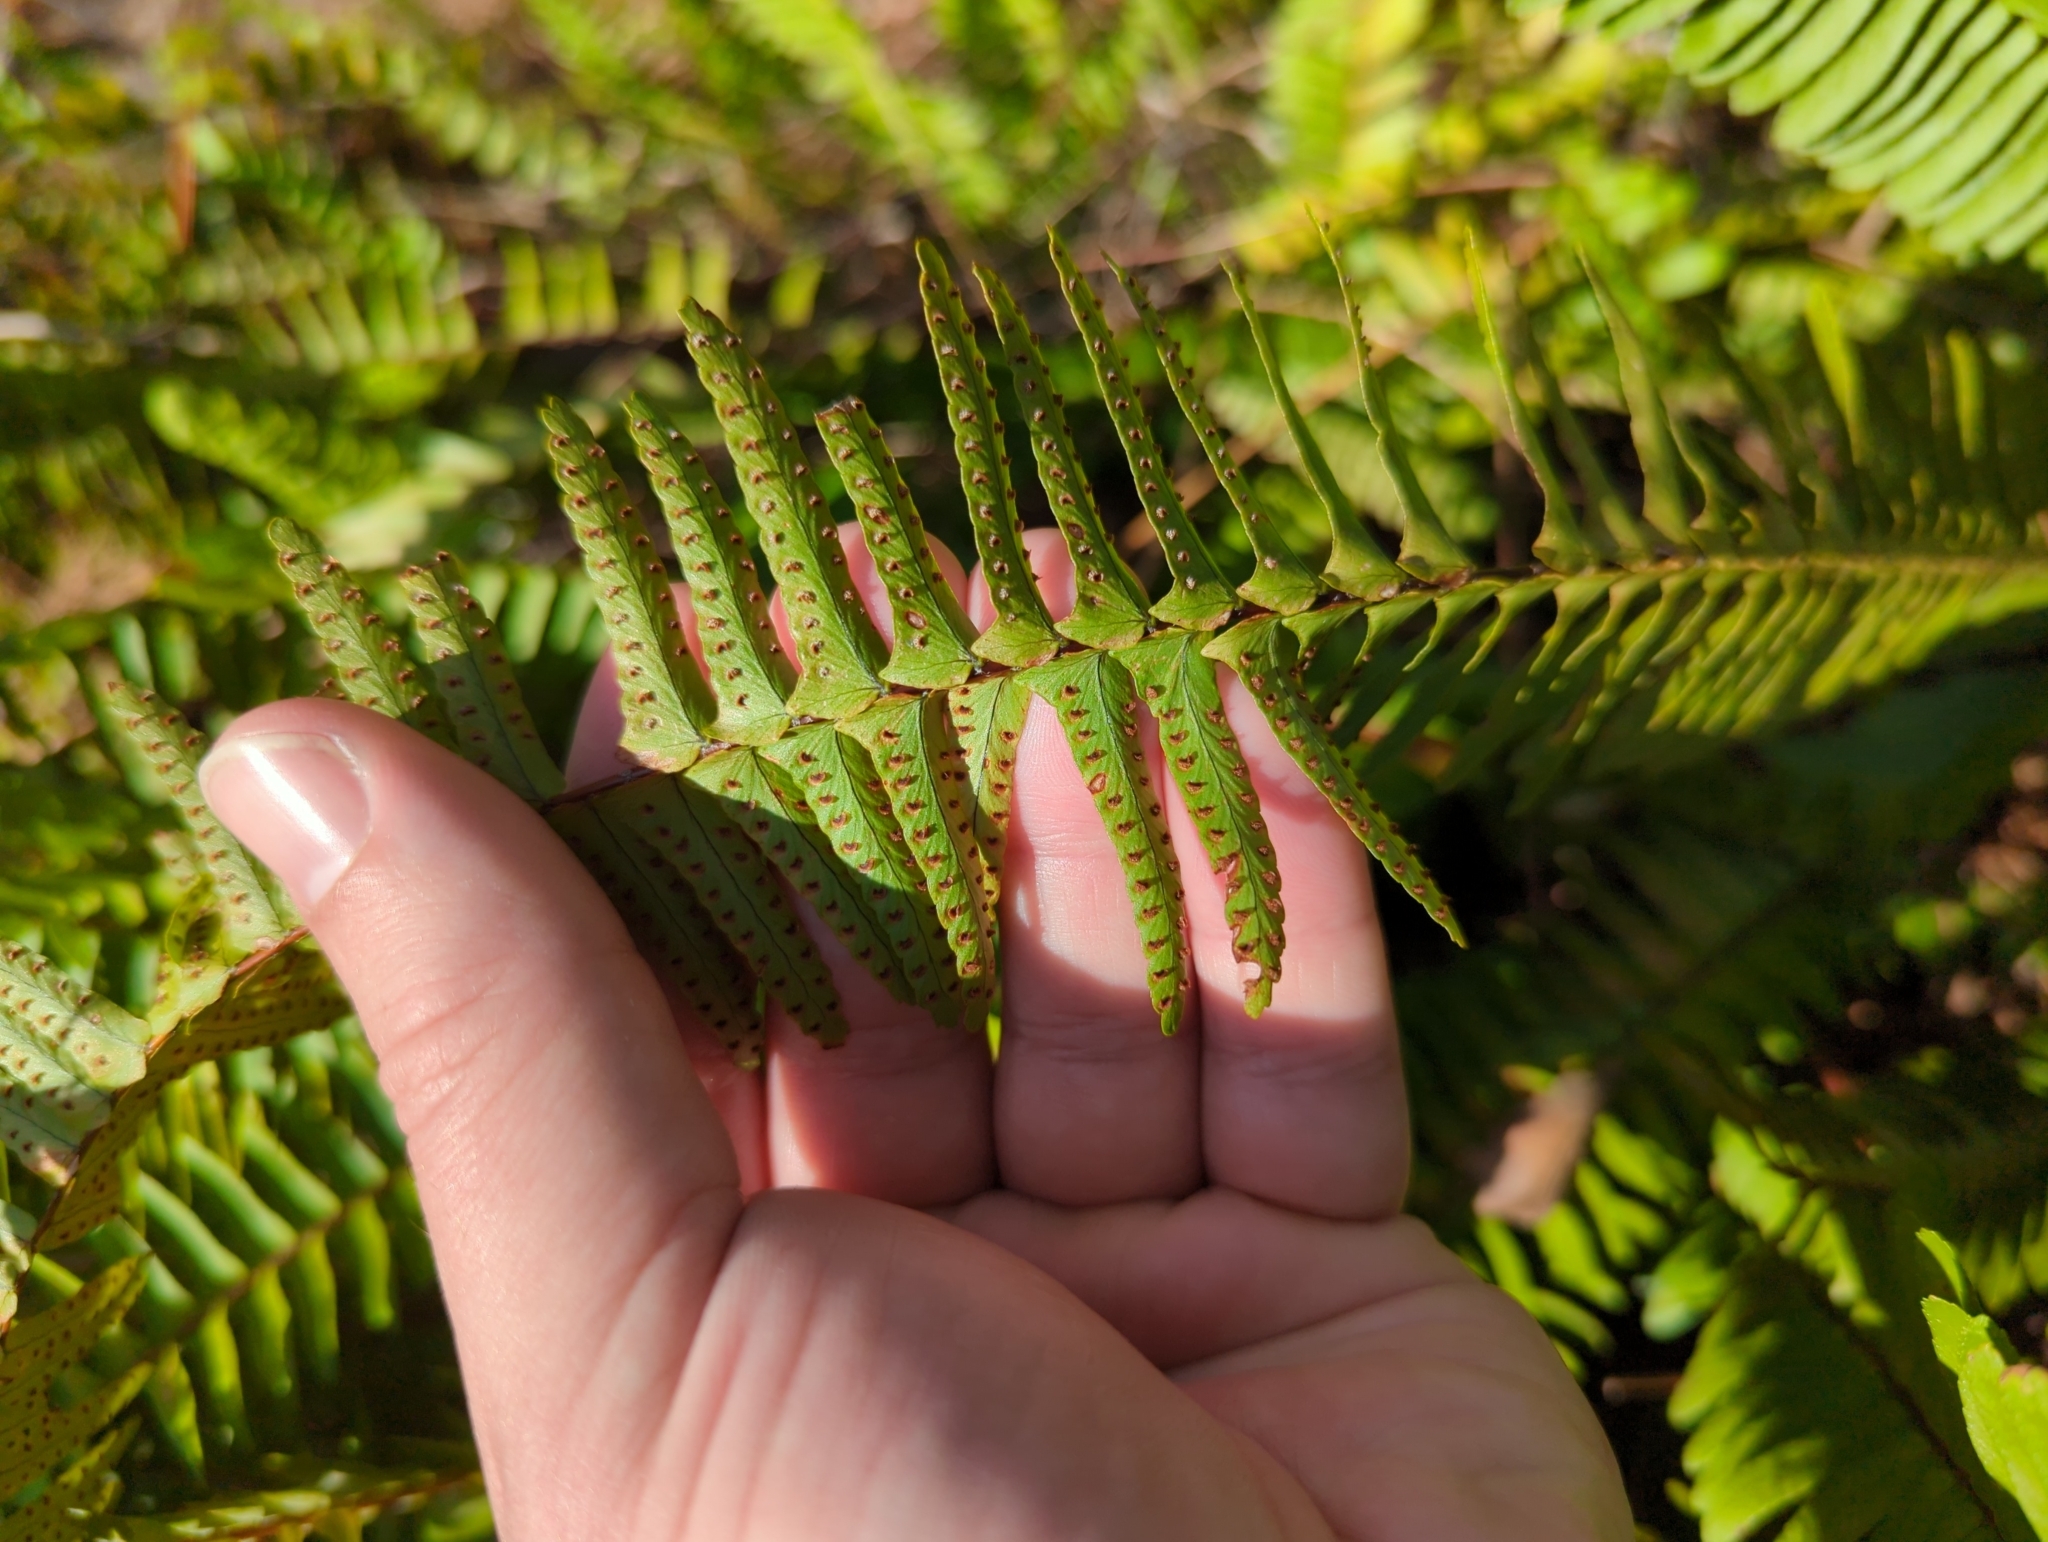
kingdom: Plantae
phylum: Tracheophyta
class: Polypodiopsida
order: Polypodiales
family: Nephrolepidaceae
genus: Nephrolepis
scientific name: Nephrolepis cordifolia
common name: Narrow swordfern
